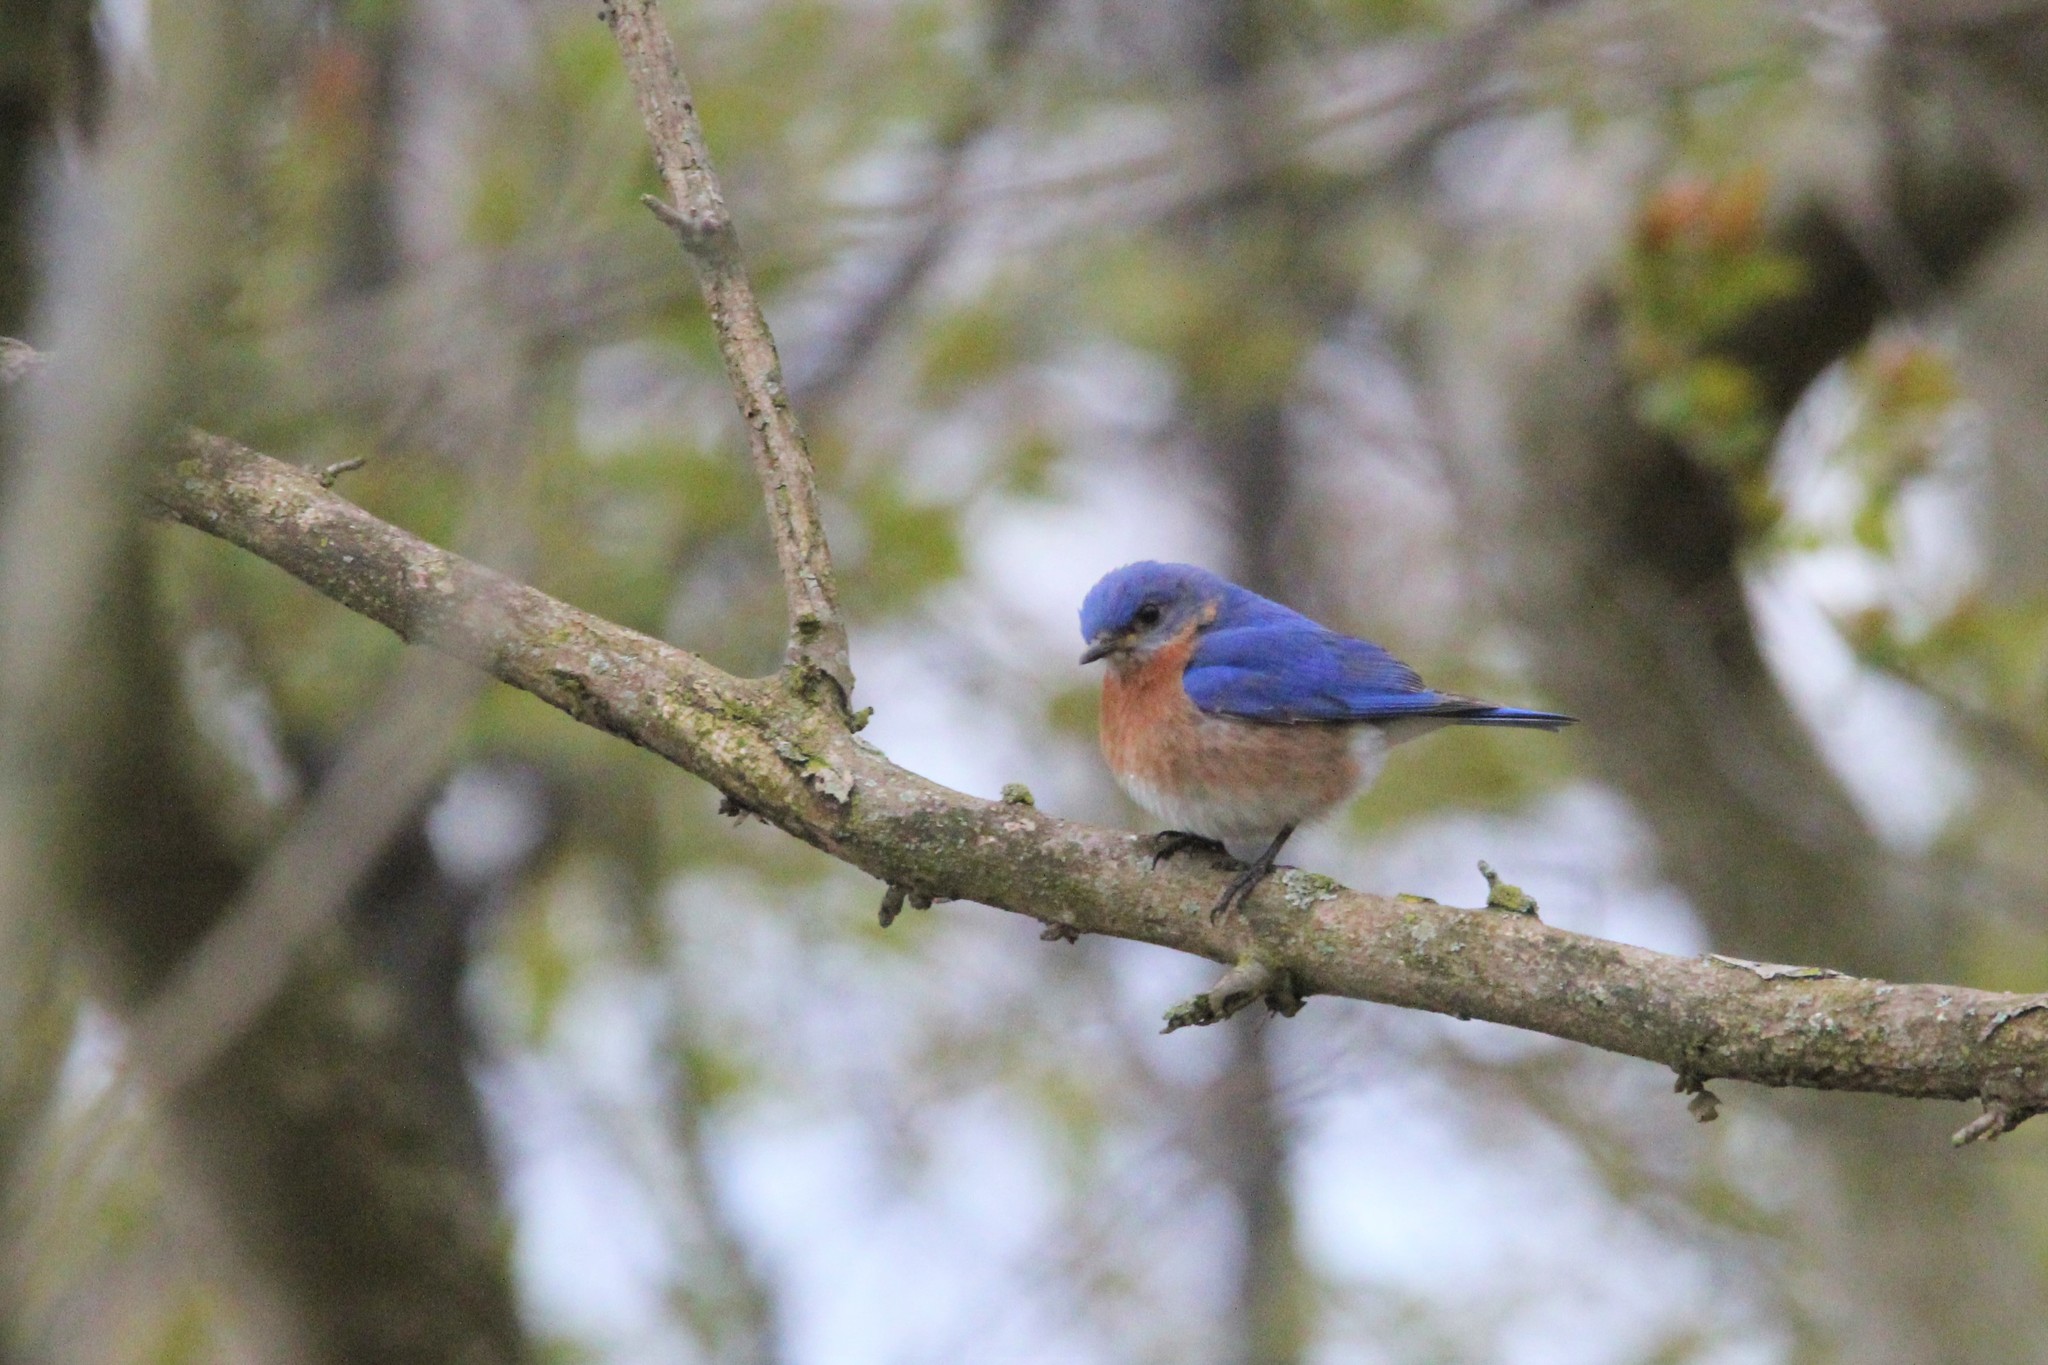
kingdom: Animalia
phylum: Chordata
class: Aves
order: Passeriformes
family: Turdidae
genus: Sialia
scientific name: Sialia sialis
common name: Eastern bluebird
